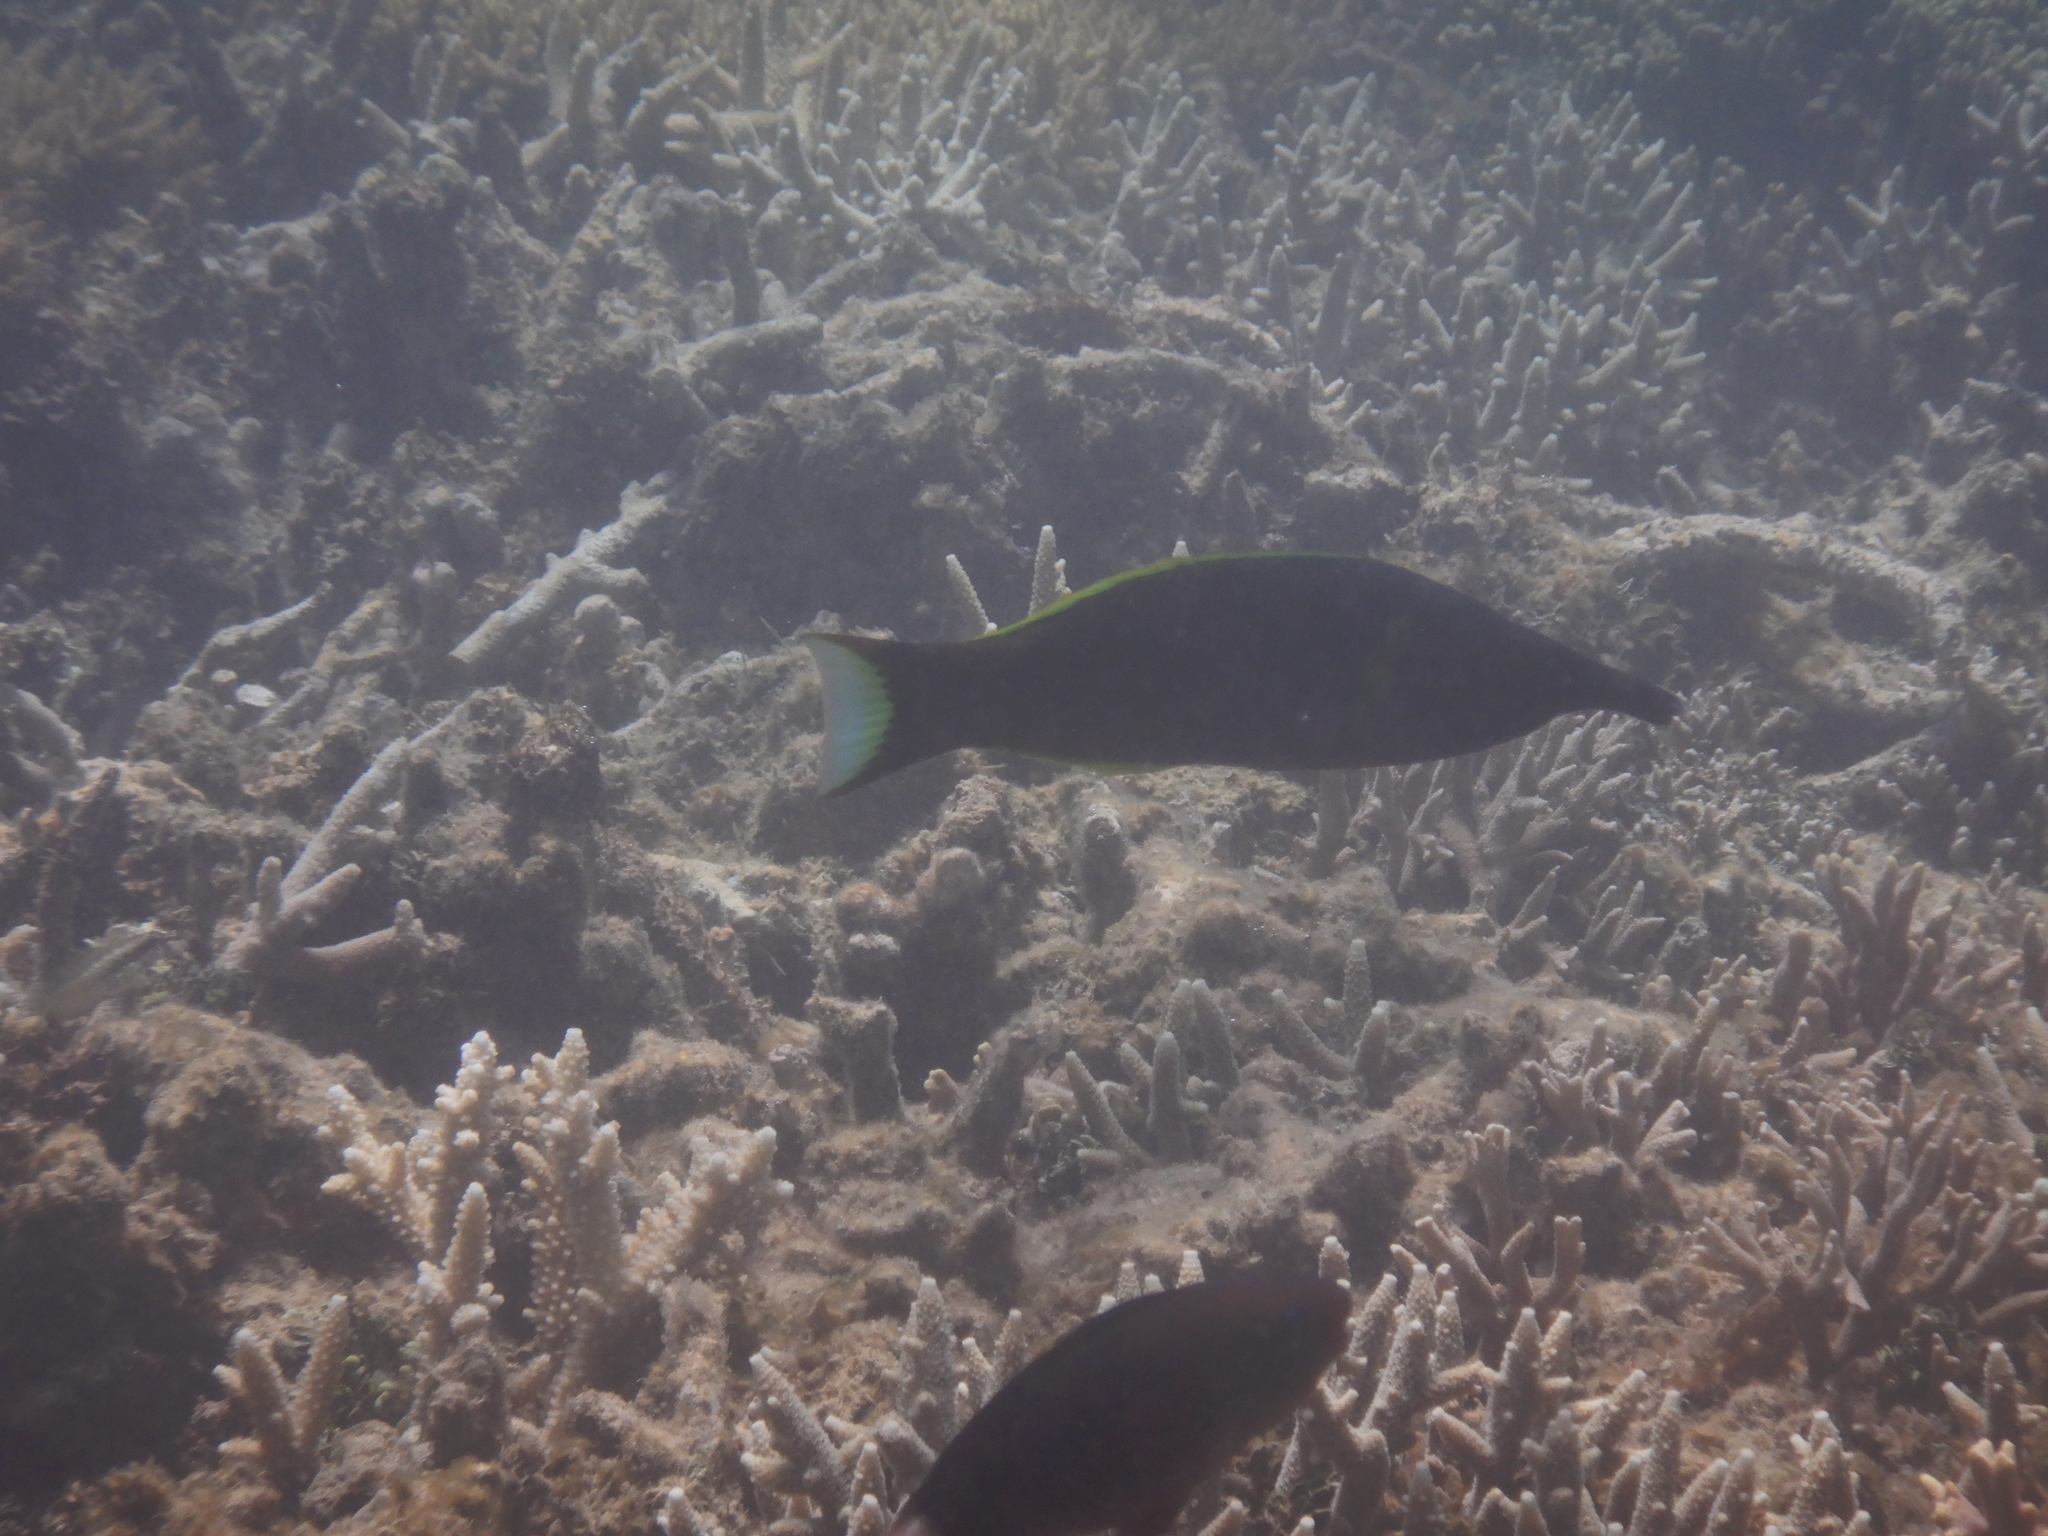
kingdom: Animalia
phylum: Chordata
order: Perciformes
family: Labridae
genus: Gomphosus
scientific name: Gomphosus varius
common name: Bird wrasse
